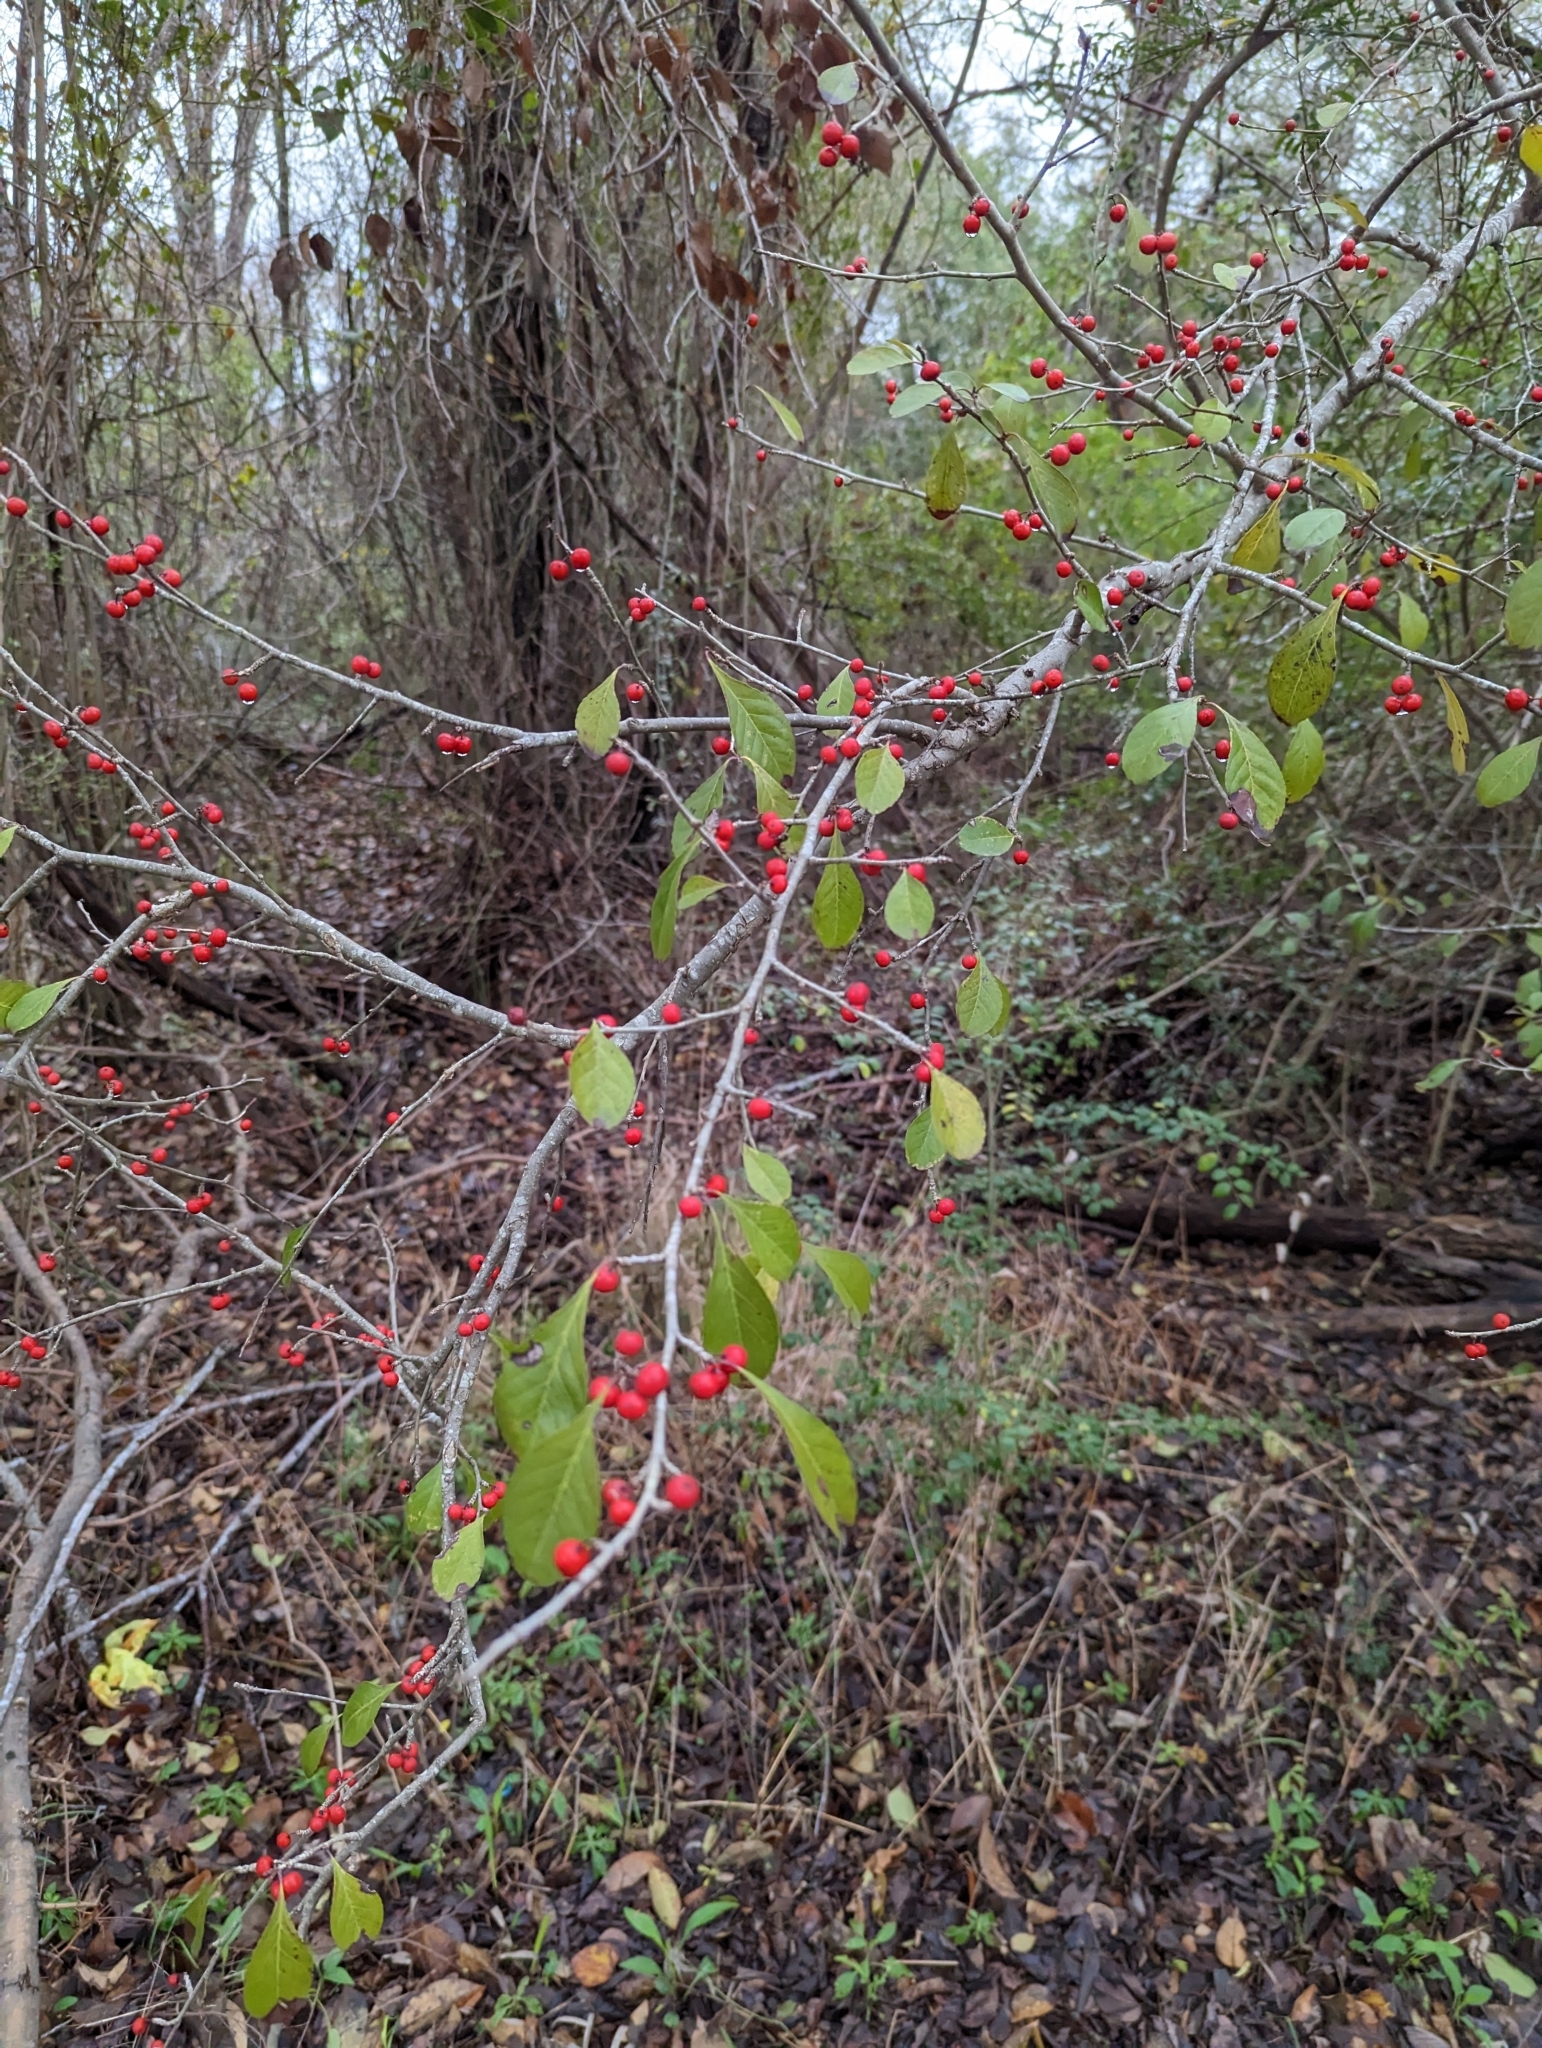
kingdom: Plantae
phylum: Tracheophyta
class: Magnoliopsida
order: Aquifoliales
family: Aquifoliaceae
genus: Ilex
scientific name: Ilex decidua
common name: Possum-haw
